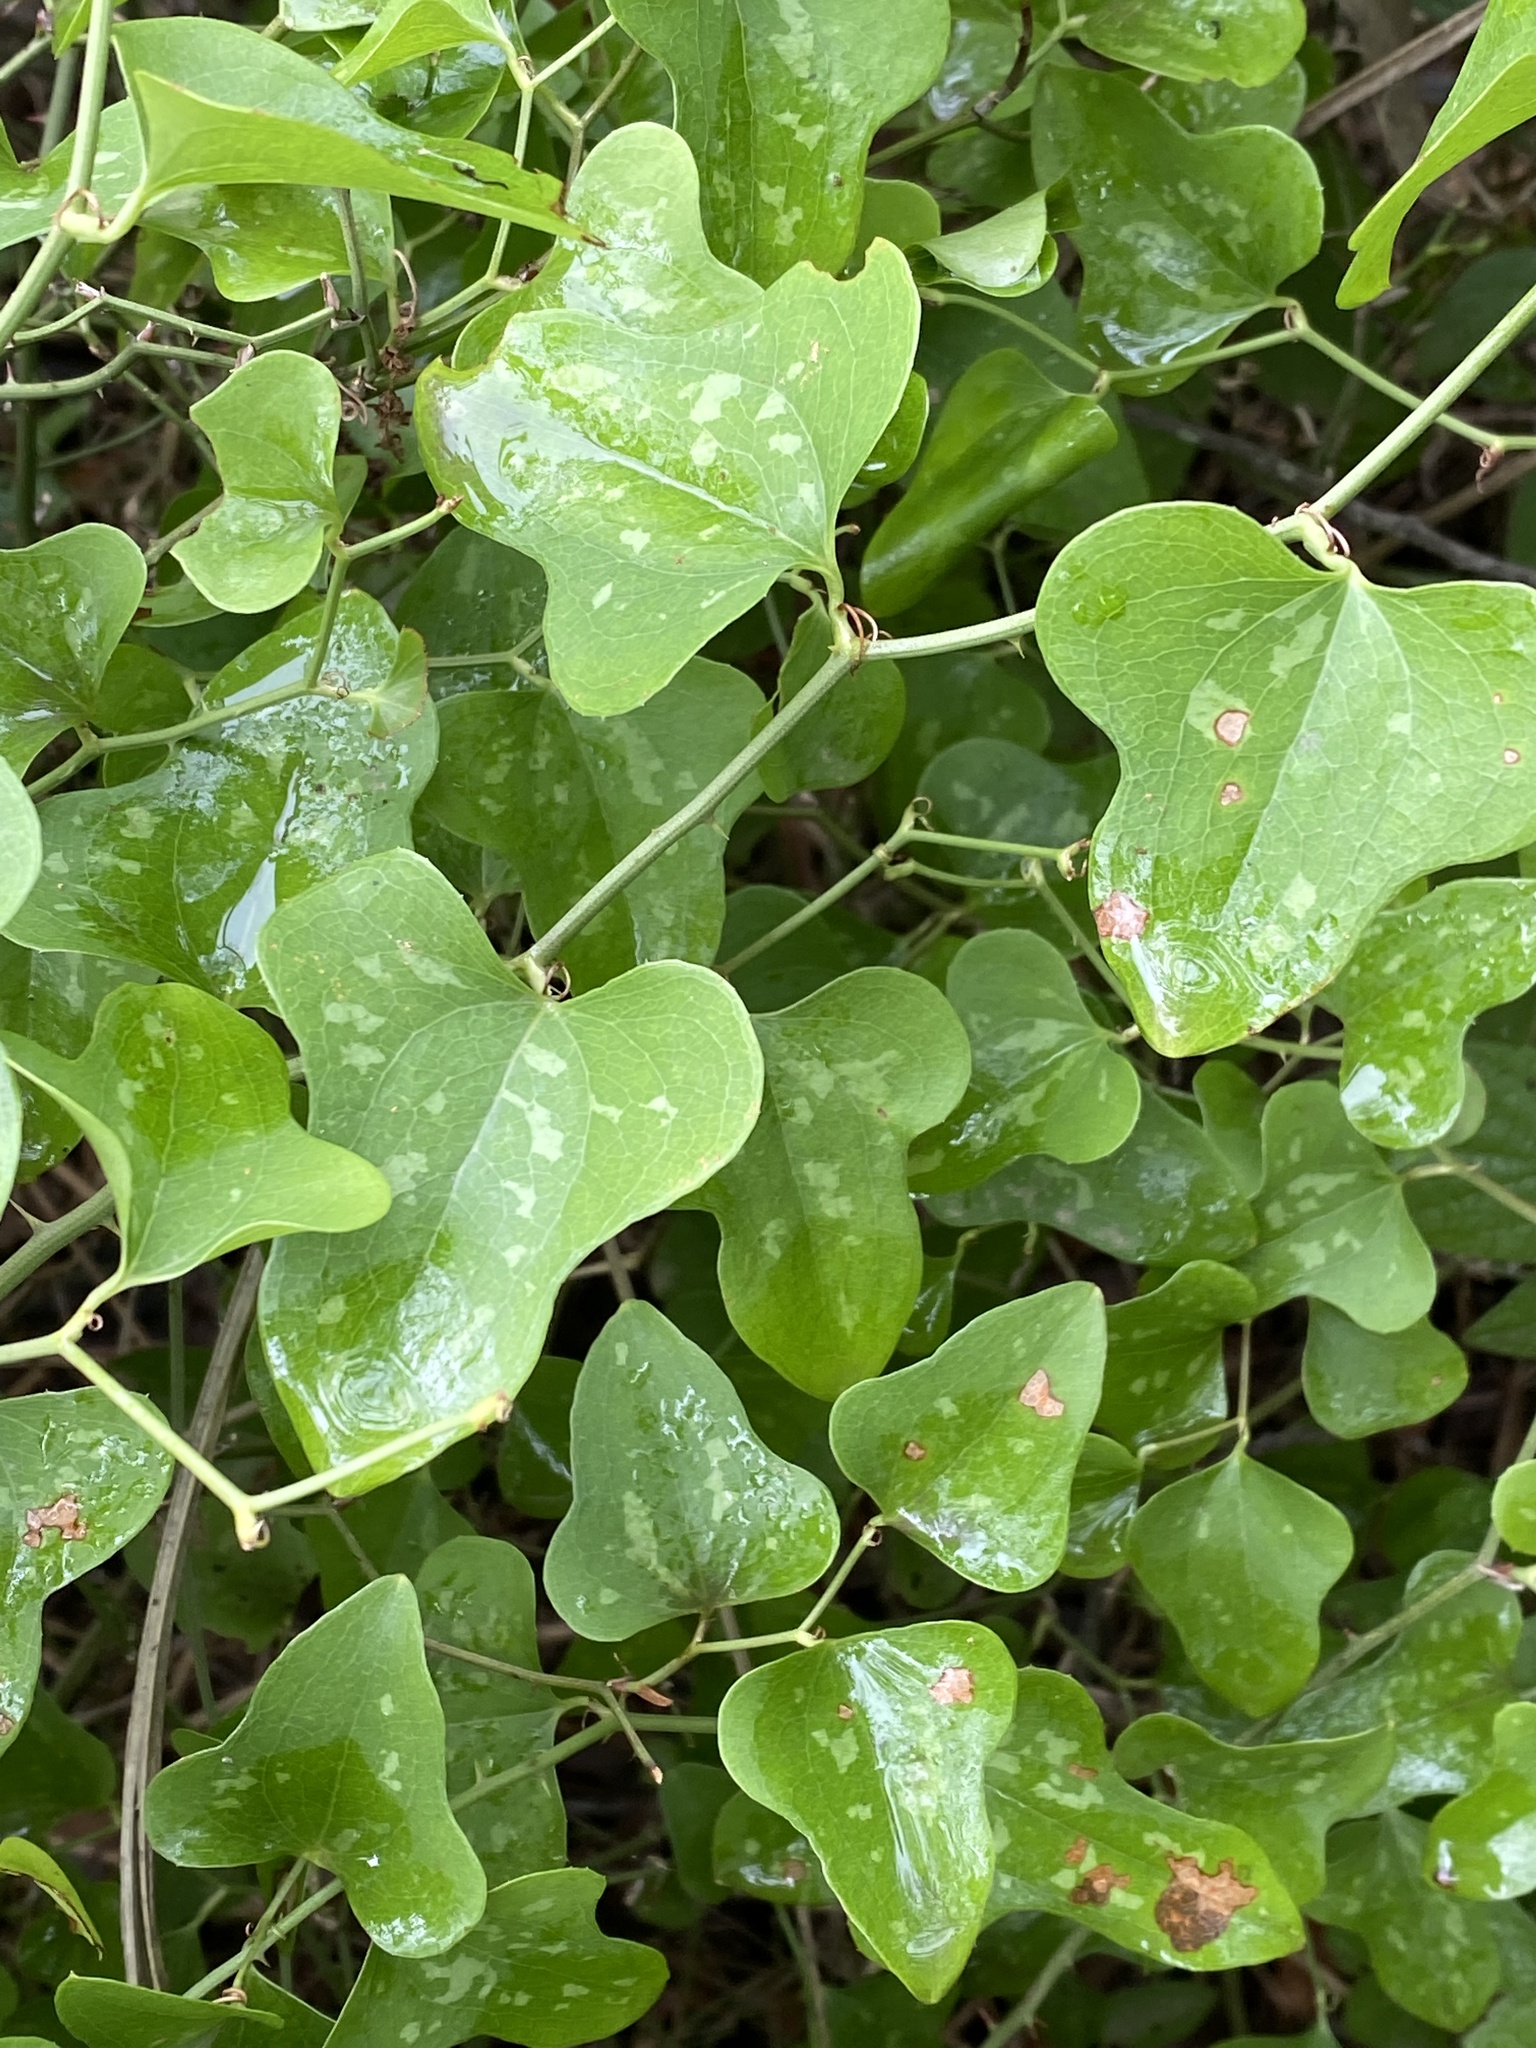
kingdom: Plantae
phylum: Tracheophyta
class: Liliopsida
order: Liliales
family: Smilacaceae
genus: Smilax
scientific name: Smilax bona-nox
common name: Catbrier
